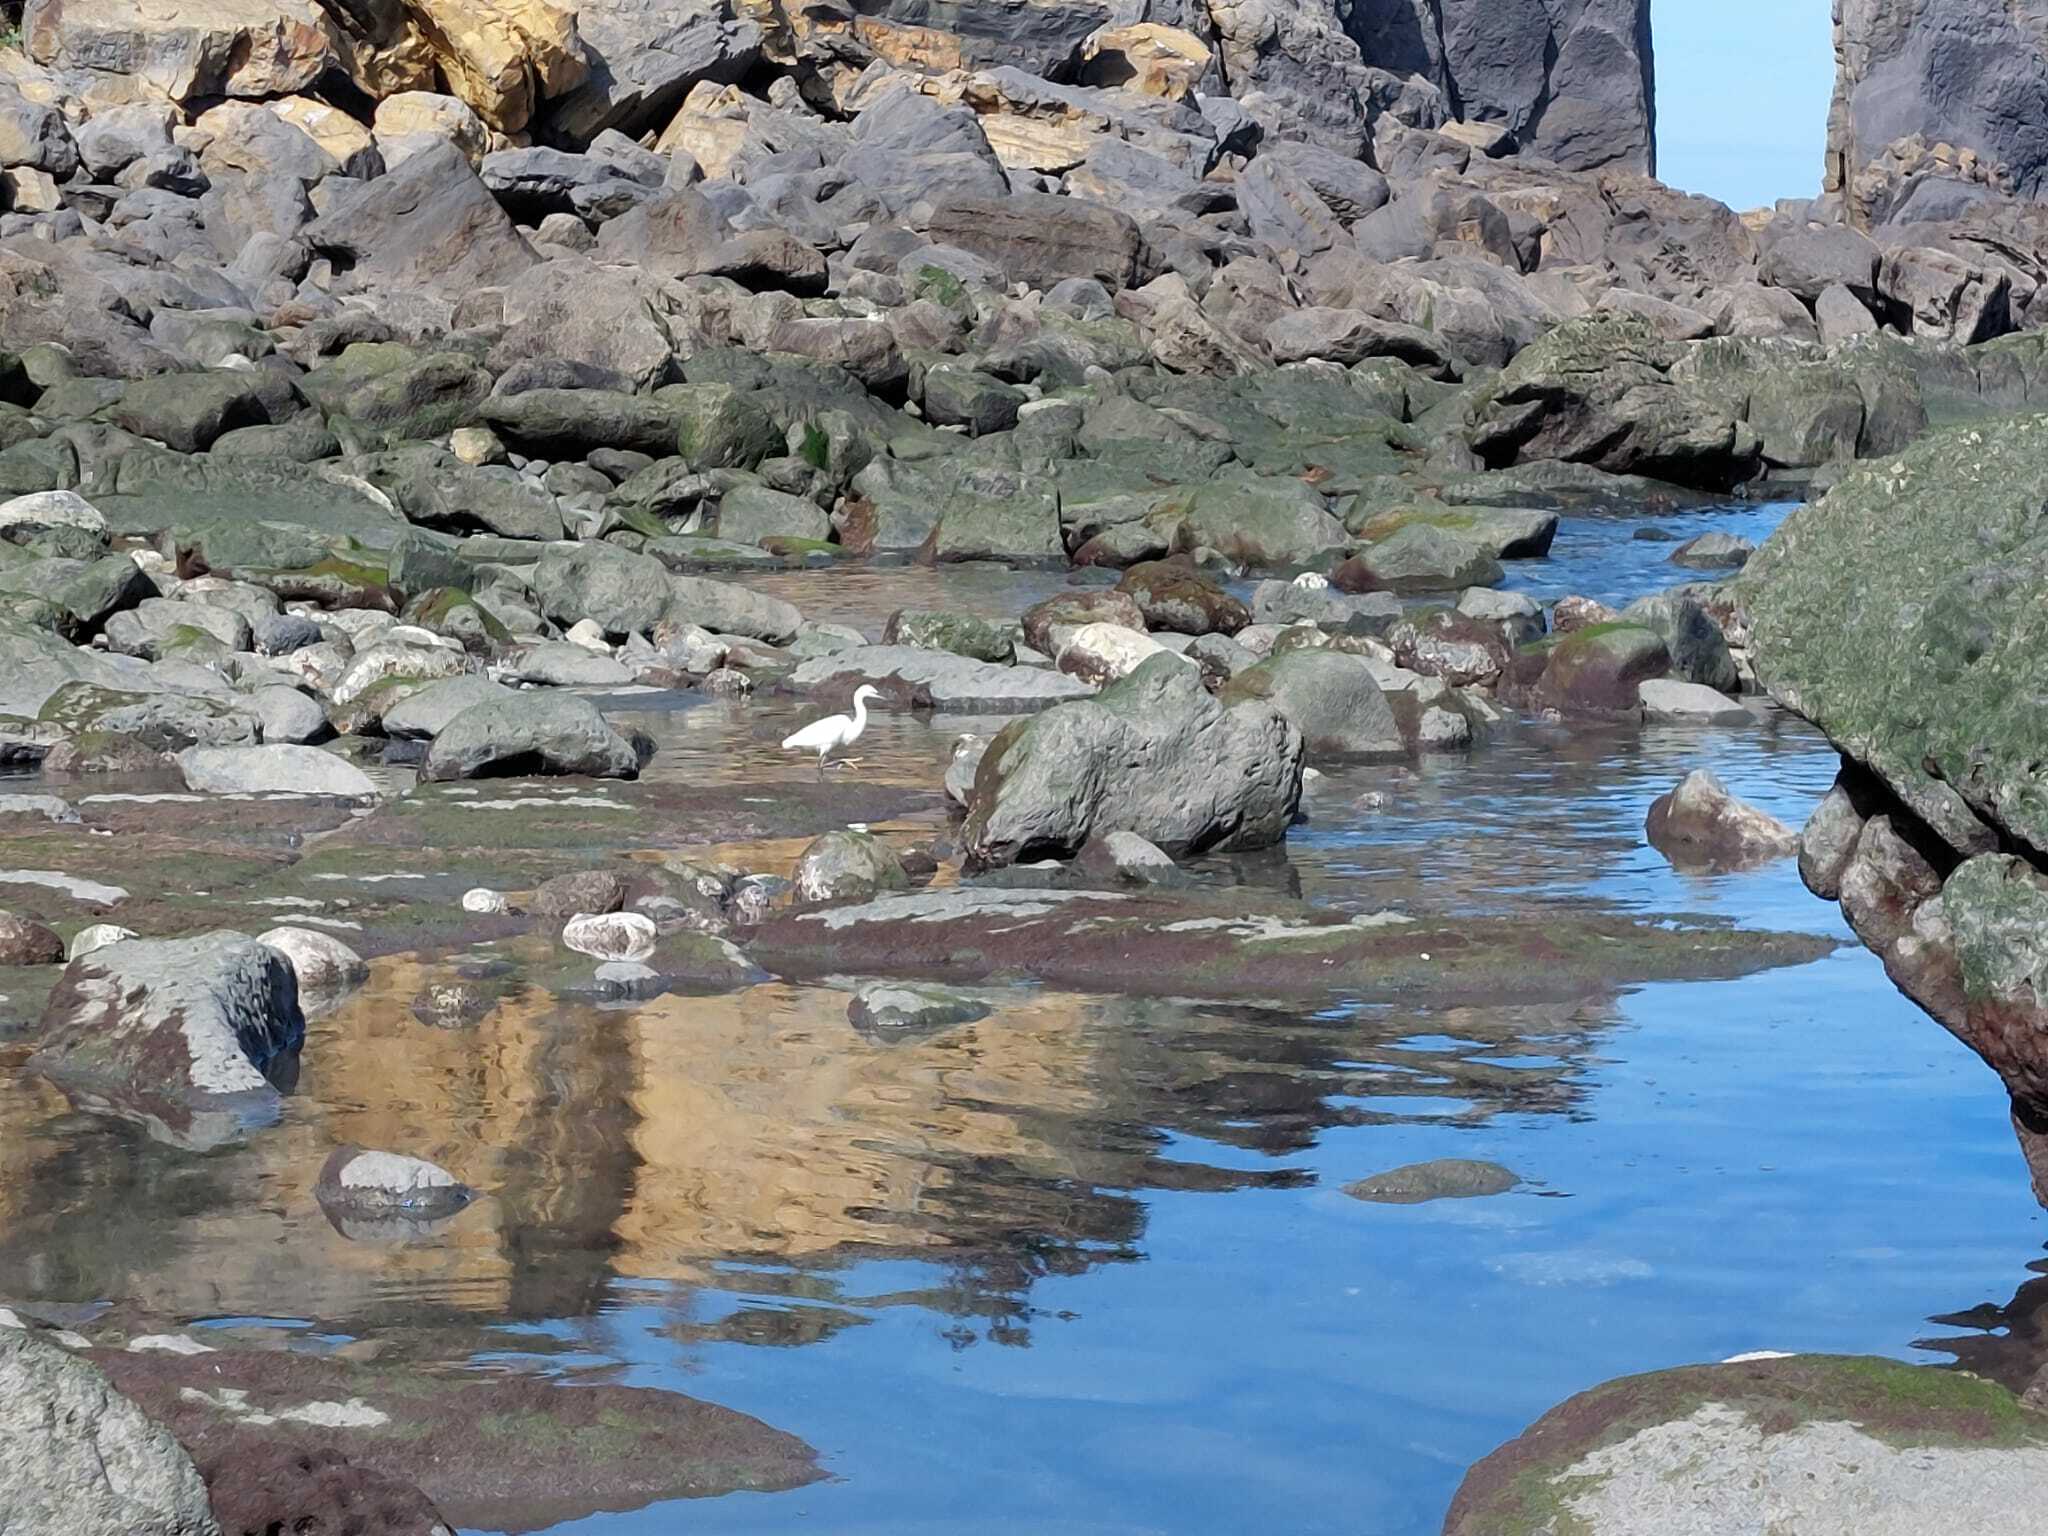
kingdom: Animalia
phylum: Chordata
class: Aves
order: Pelecaniformes
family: Ardeidae
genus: Egretta
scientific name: Egretta garzetta
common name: Little egret
